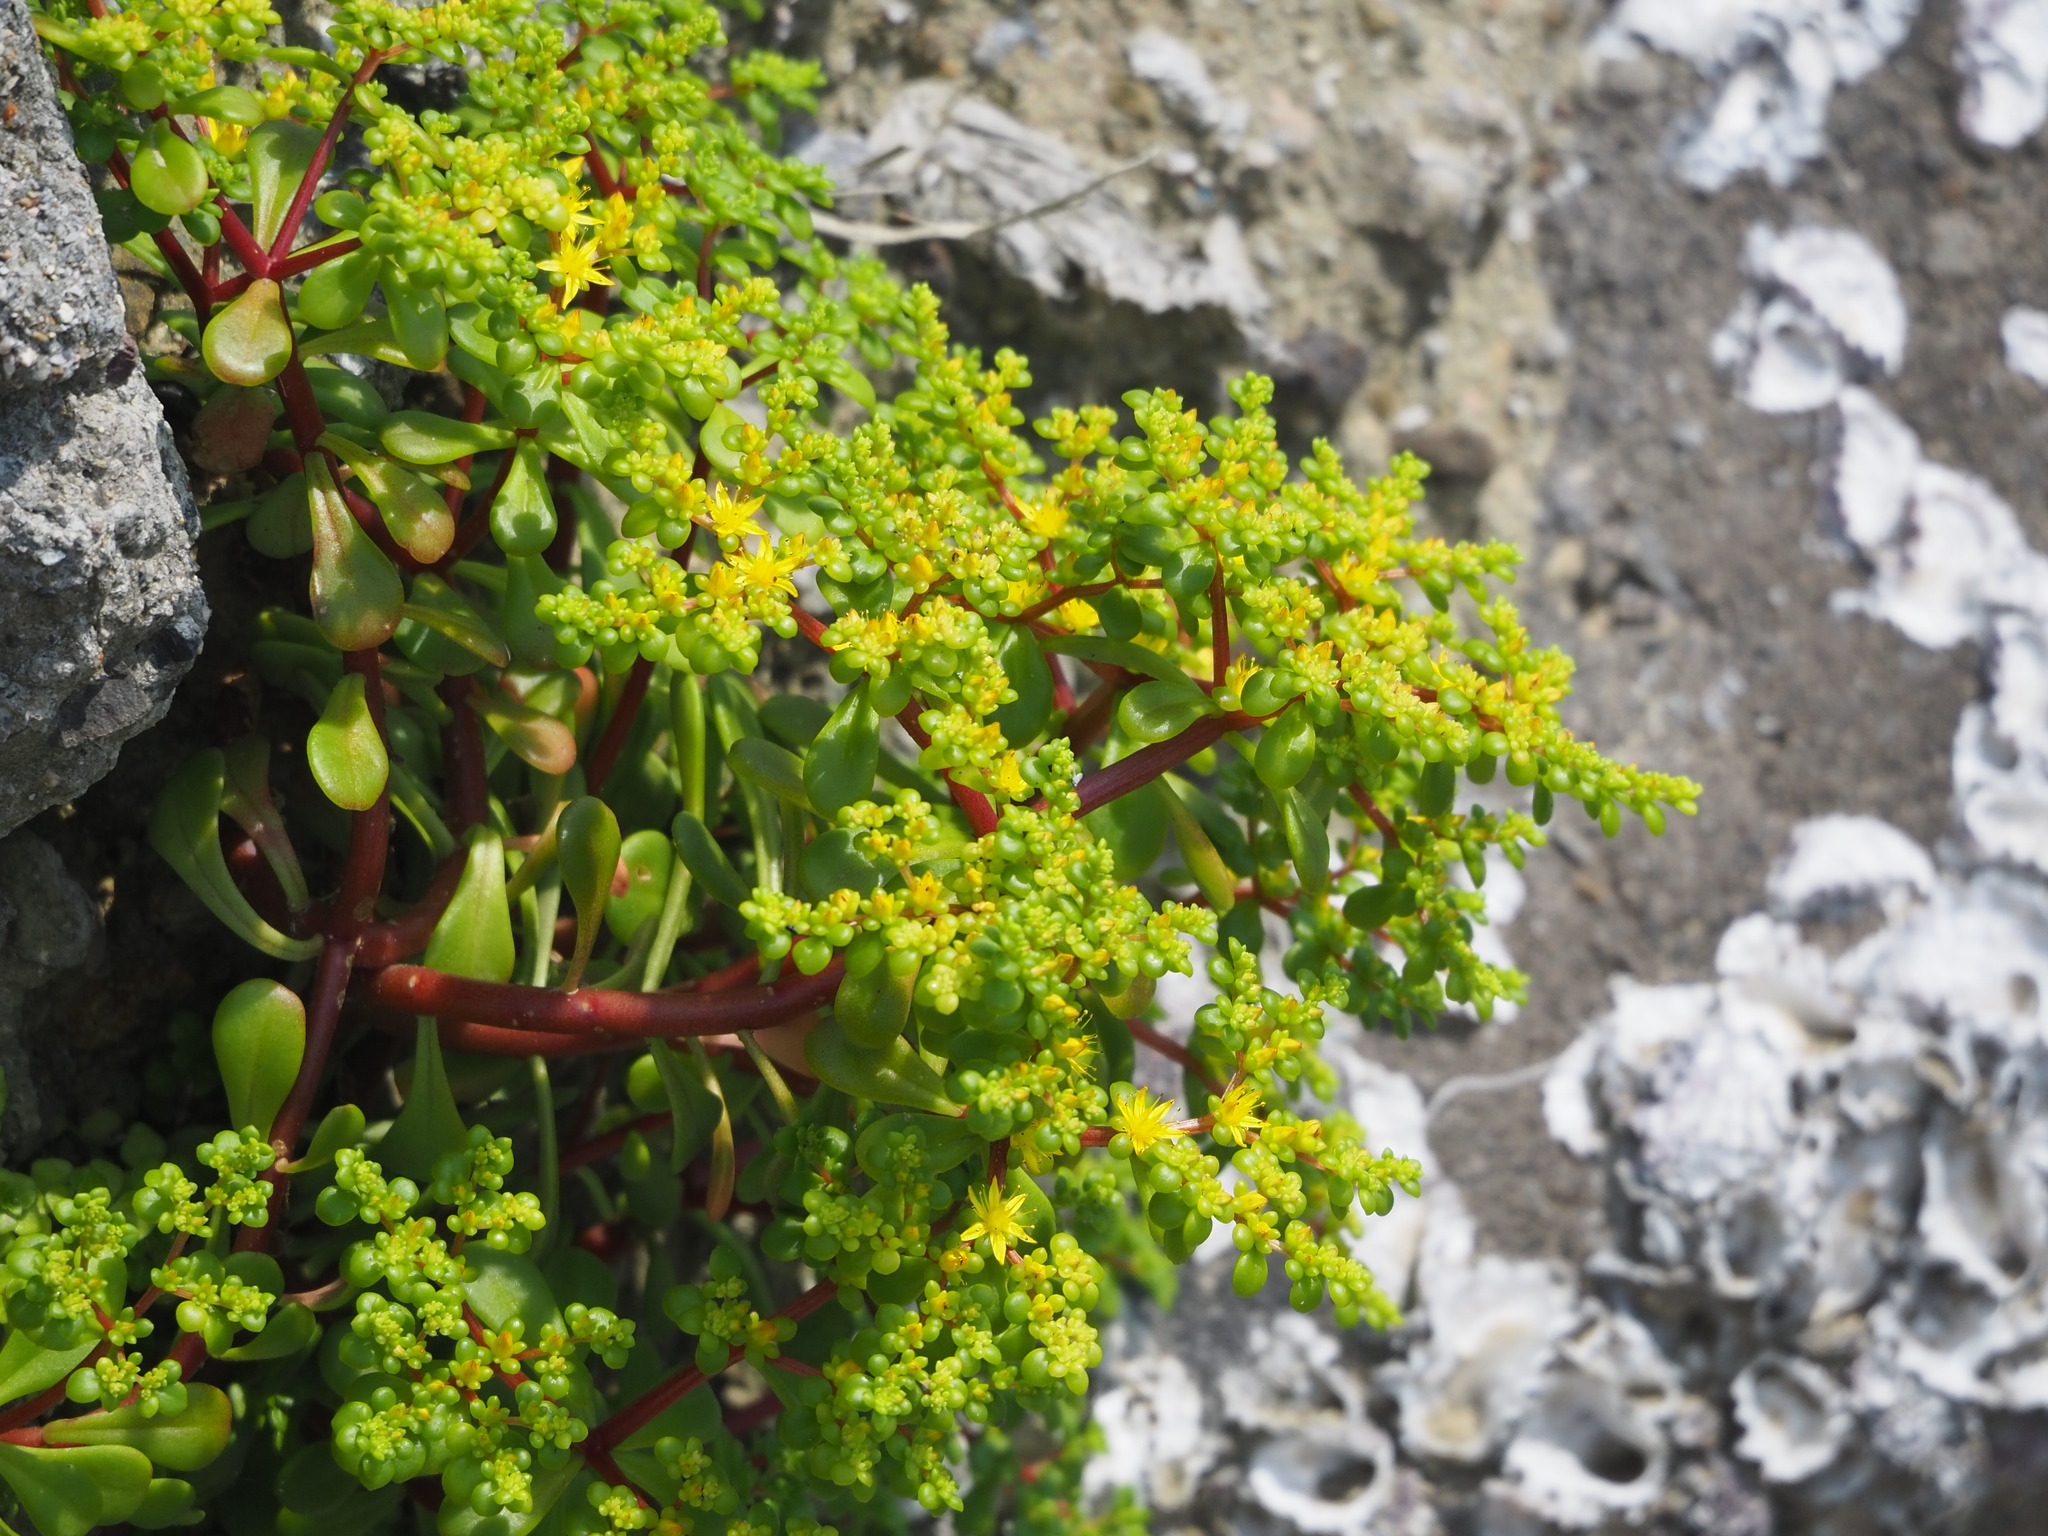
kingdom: Plantae
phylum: Tracheophyta
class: Magnoliopsida
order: Saxifragales
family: Crassulaceae
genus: Sedum
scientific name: Sedum formosanum
